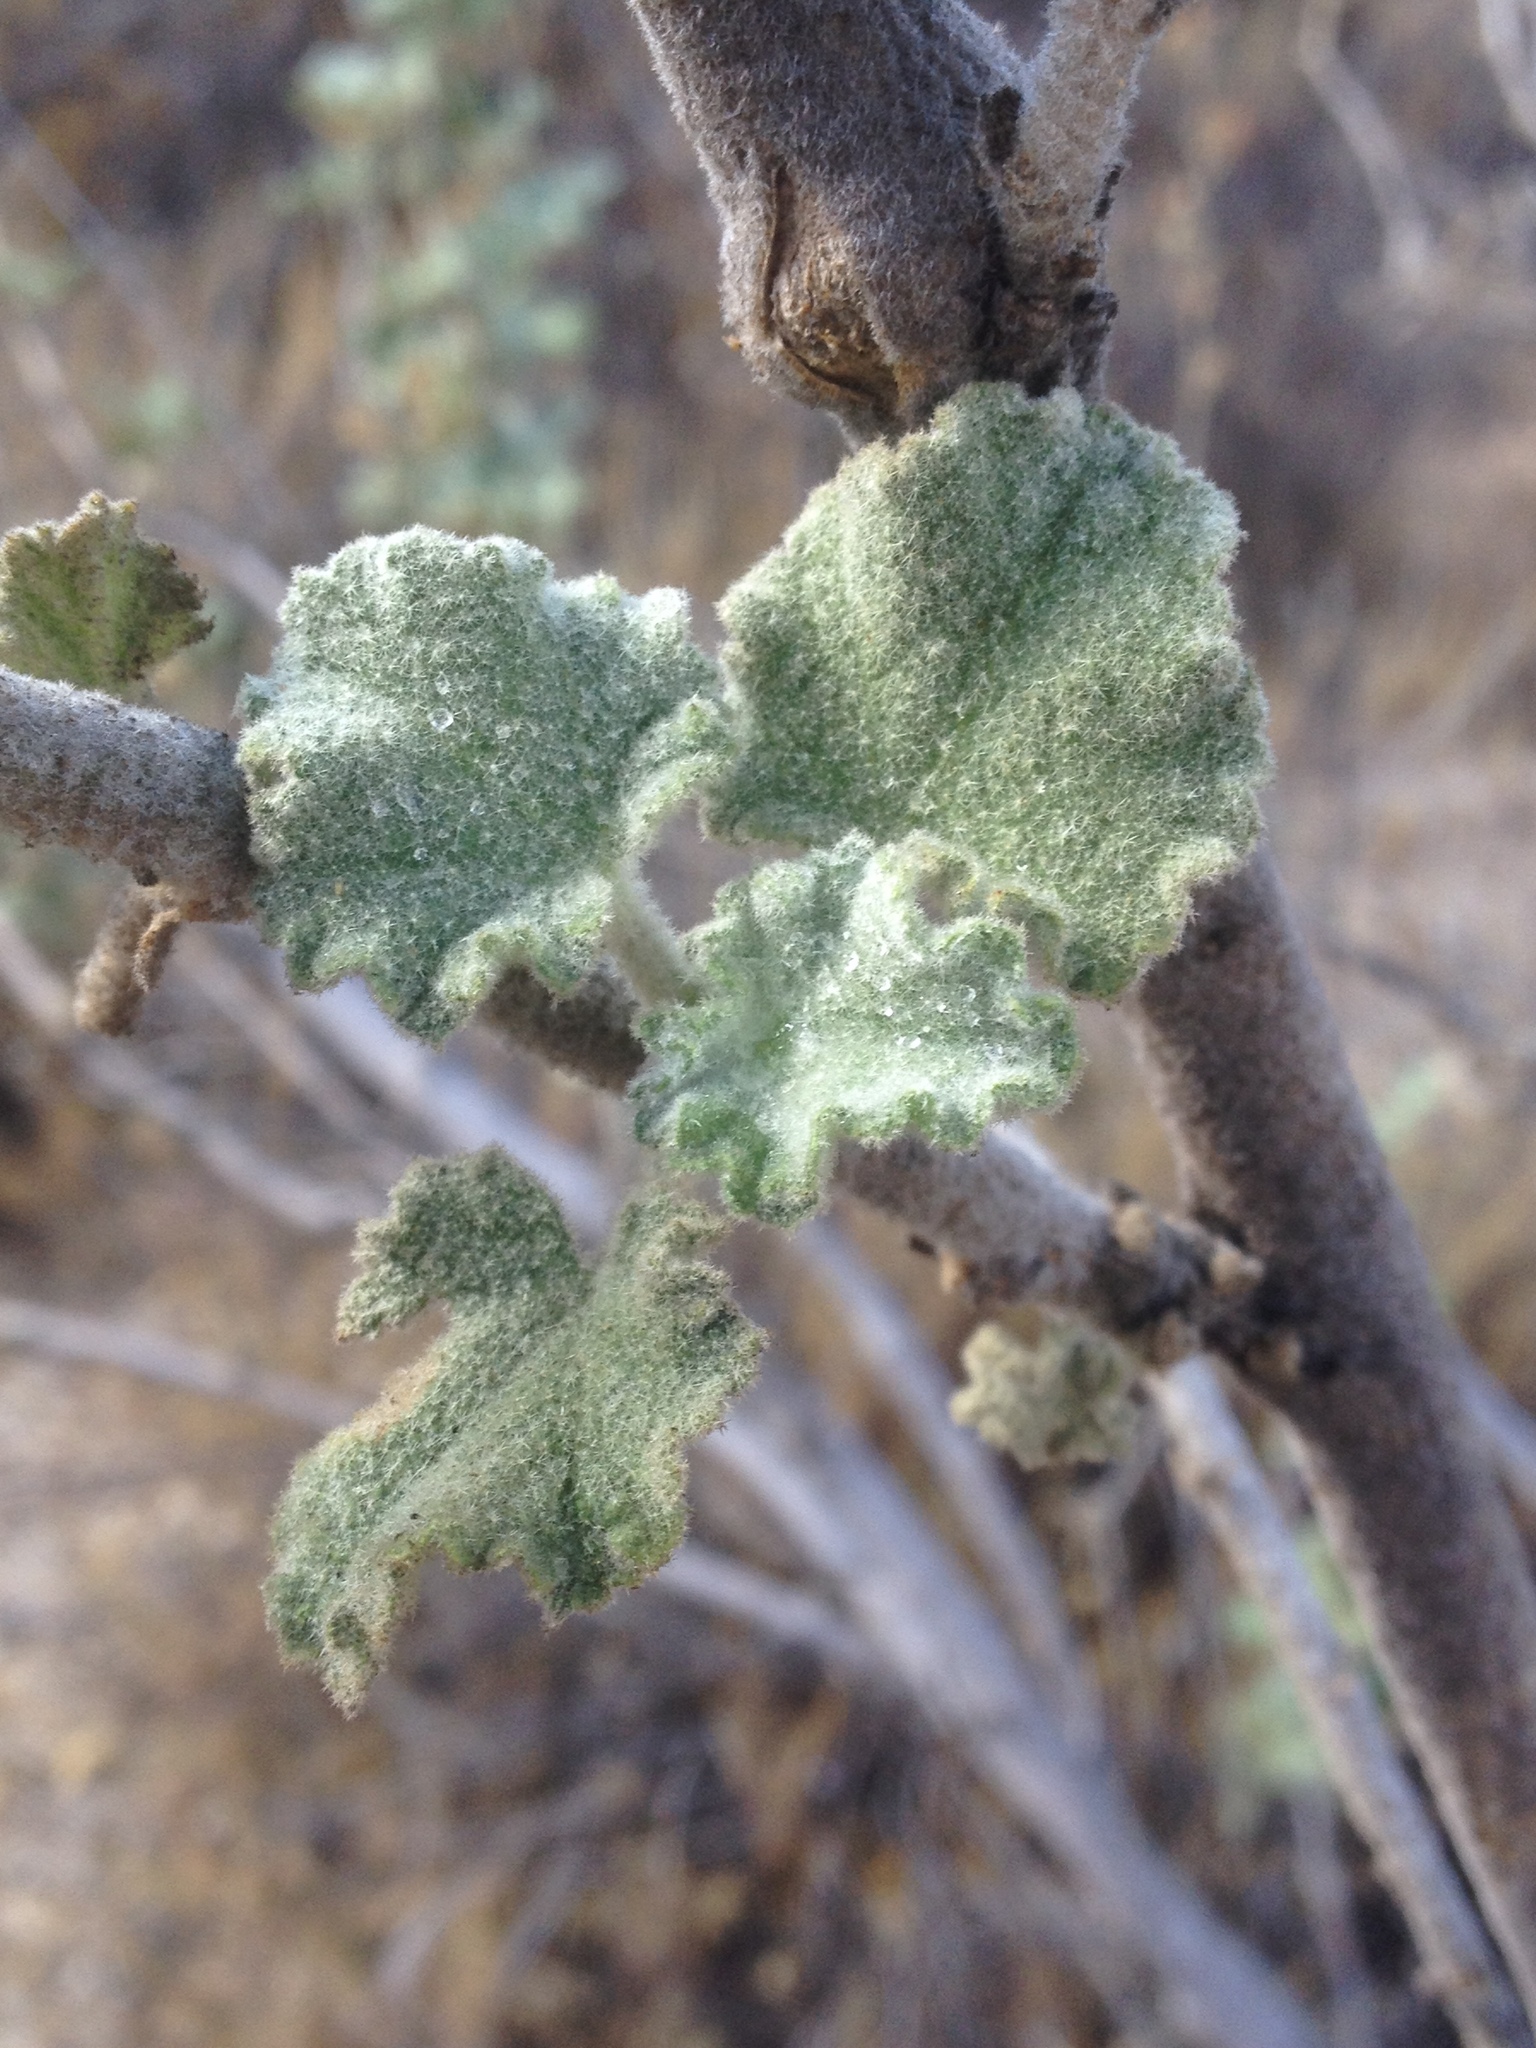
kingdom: Plantae
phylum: Tracheophyta
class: Magnoliopsida
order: Malvales
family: Malvaceae
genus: Malacothamnus
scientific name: Malacothamnus davidsonii
